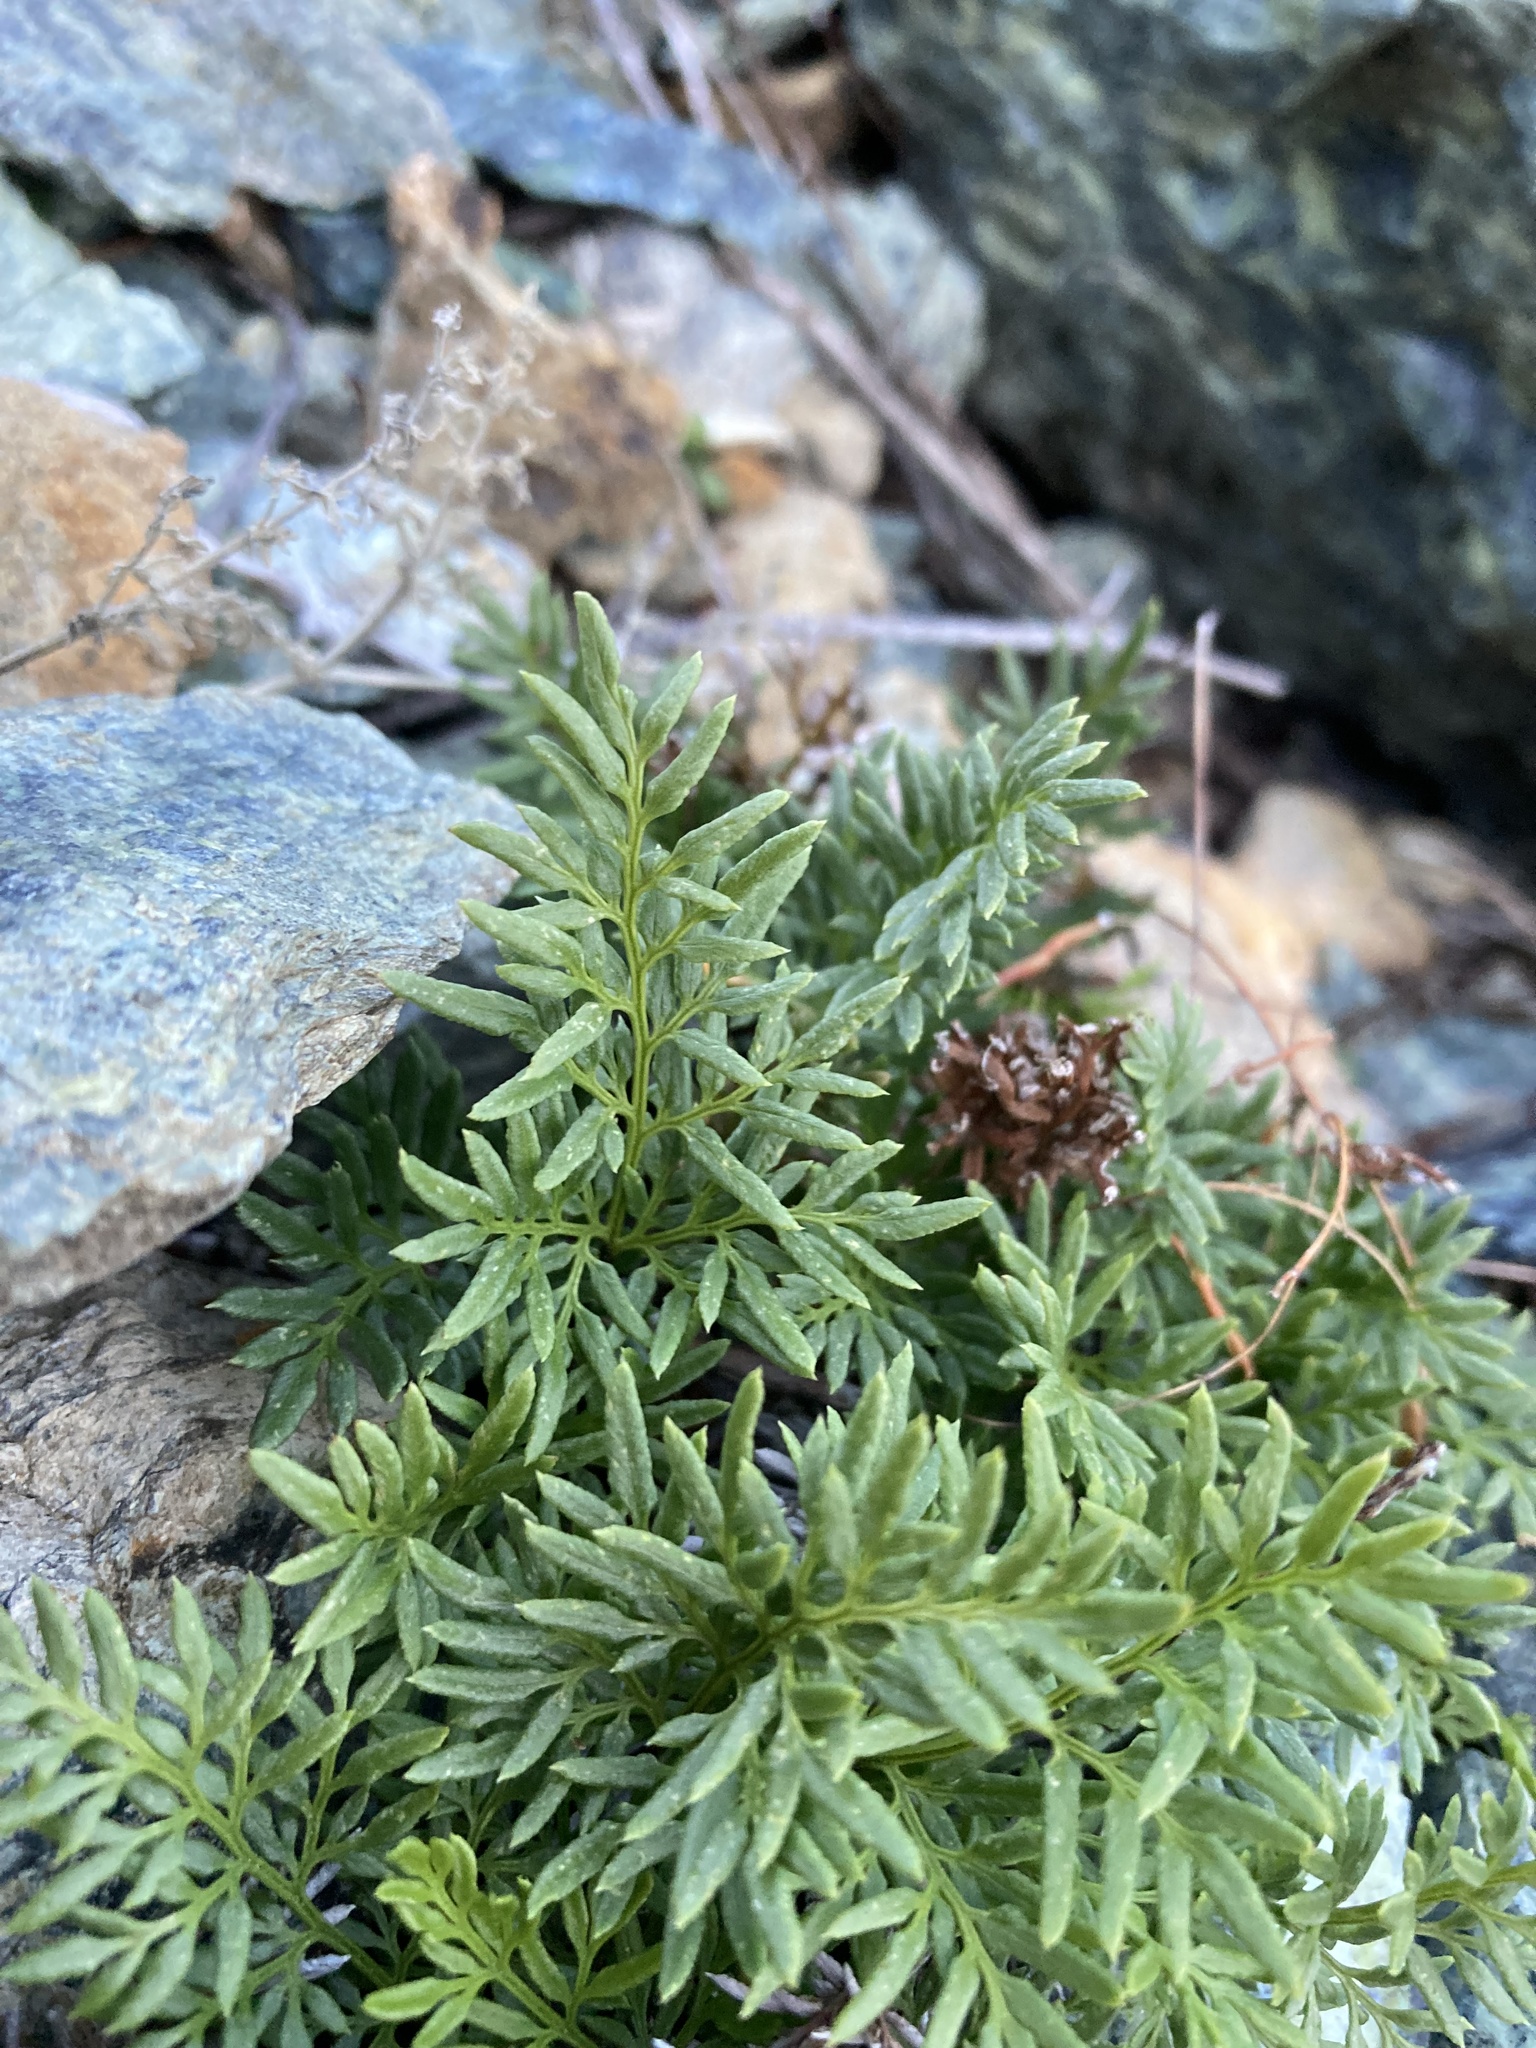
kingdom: Plantae
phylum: Tracheophyta
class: Polypodiopsida
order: Polypodiales
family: Pteridaceae
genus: Aspidotis
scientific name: Aspidotis densa
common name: Indian's dream
